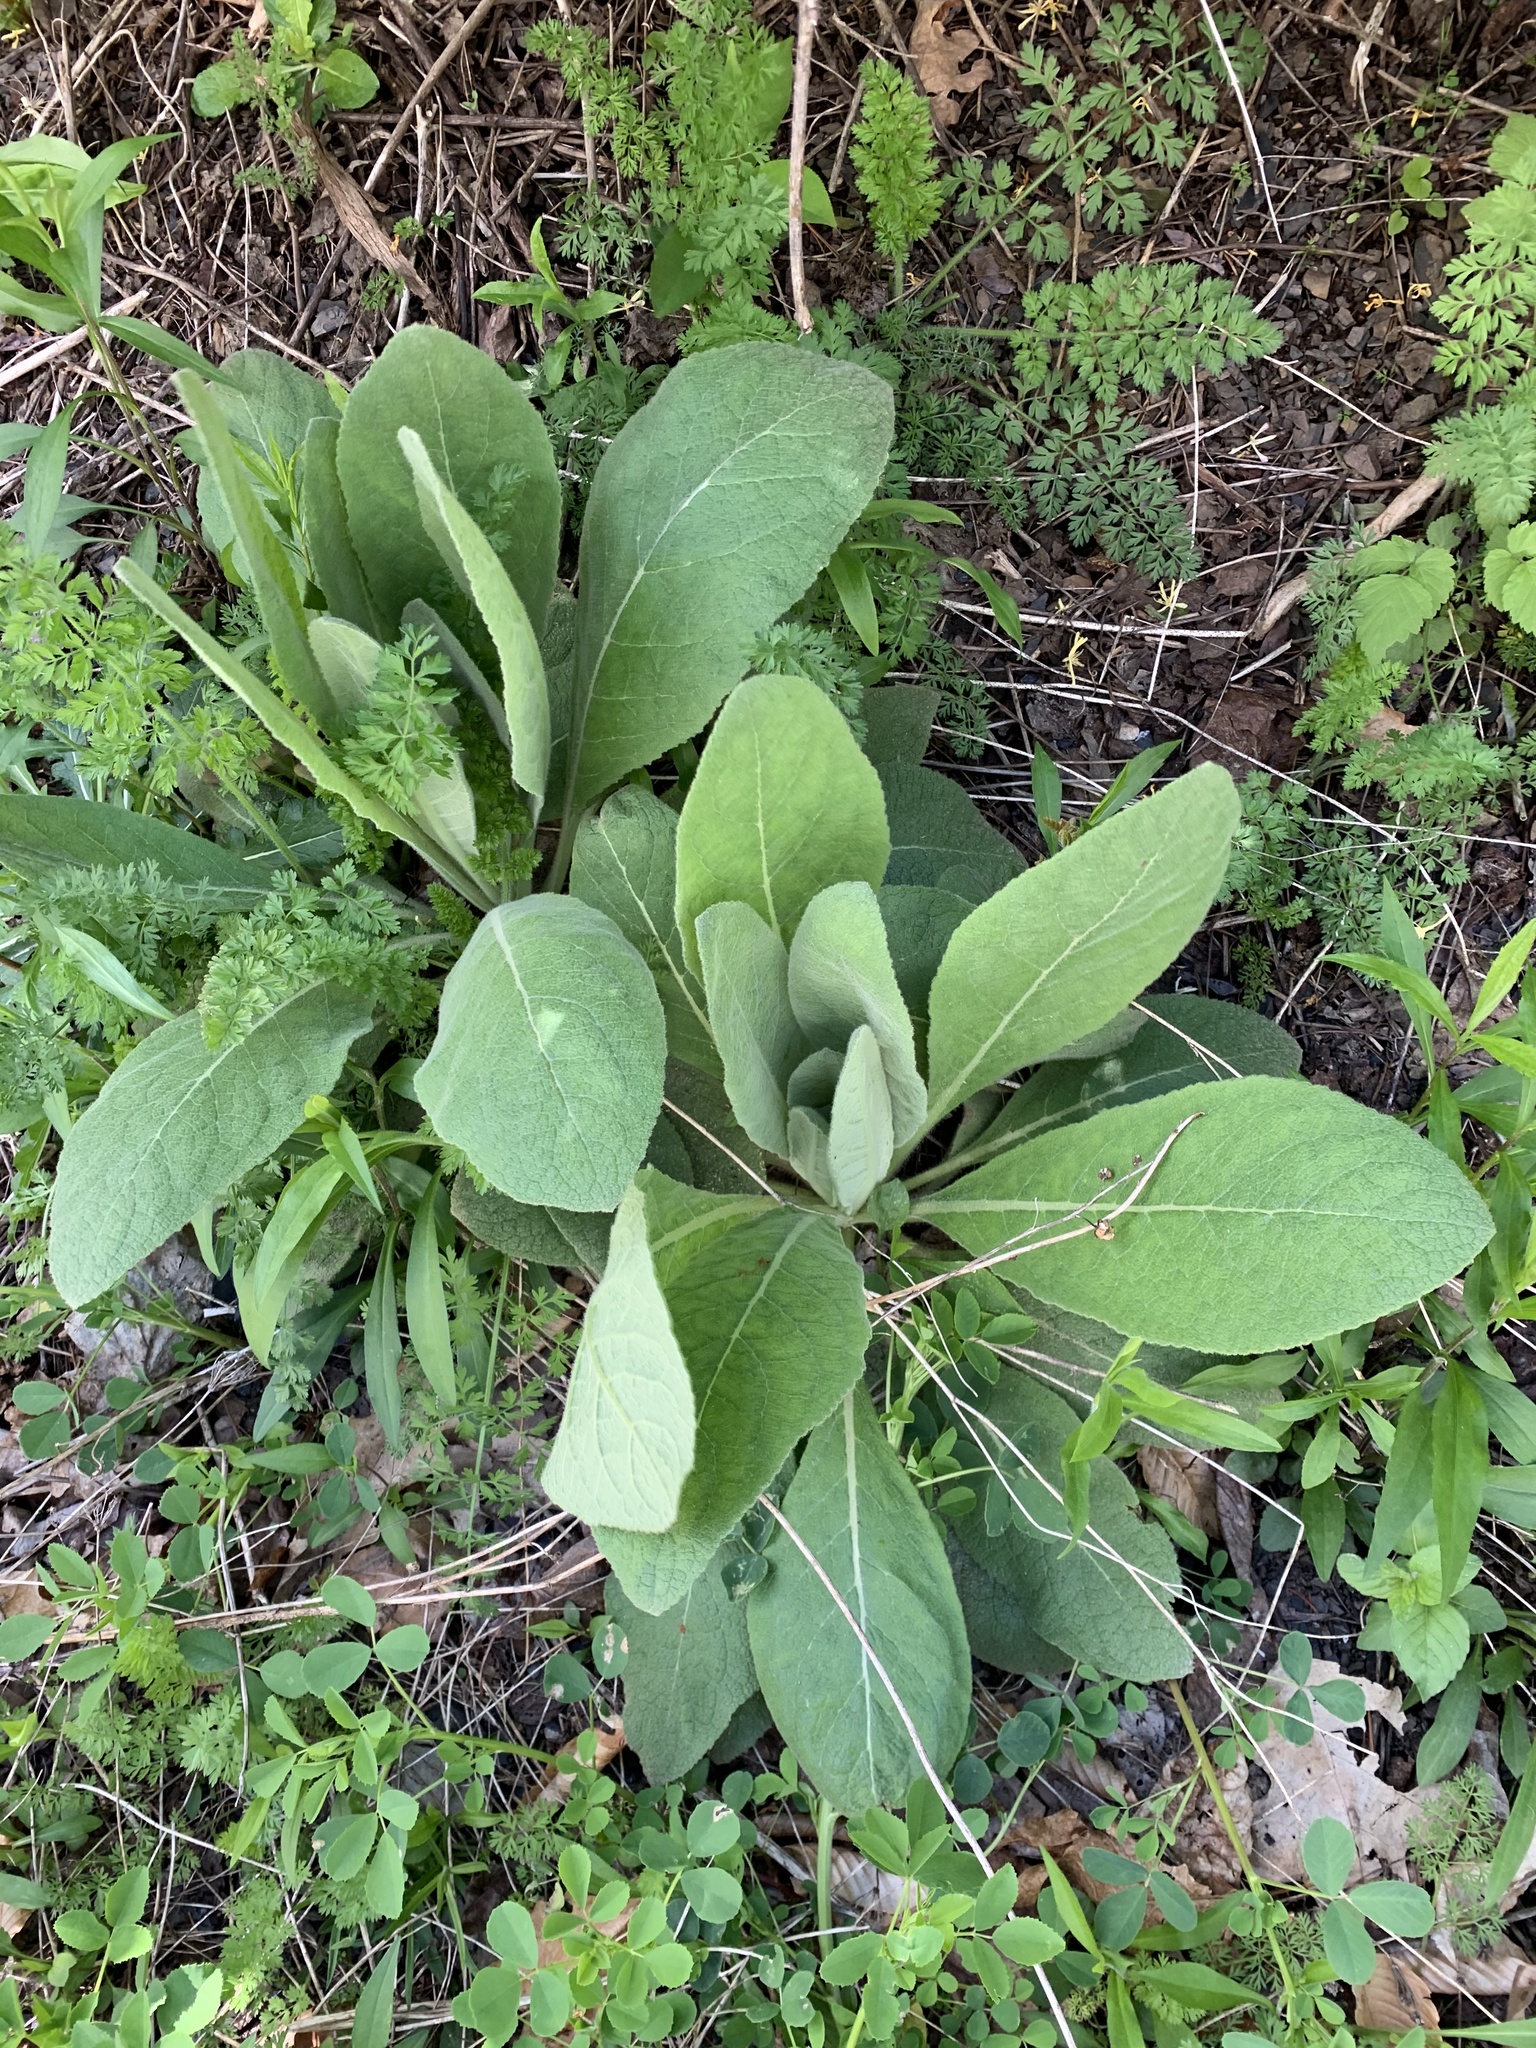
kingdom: Plantae
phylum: Tracheophyta
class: Magnoliopsida
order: Lamiales
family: Scrophulariaceae
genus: Verbascum
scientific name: Verbascum thapsus
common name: Common mullein
